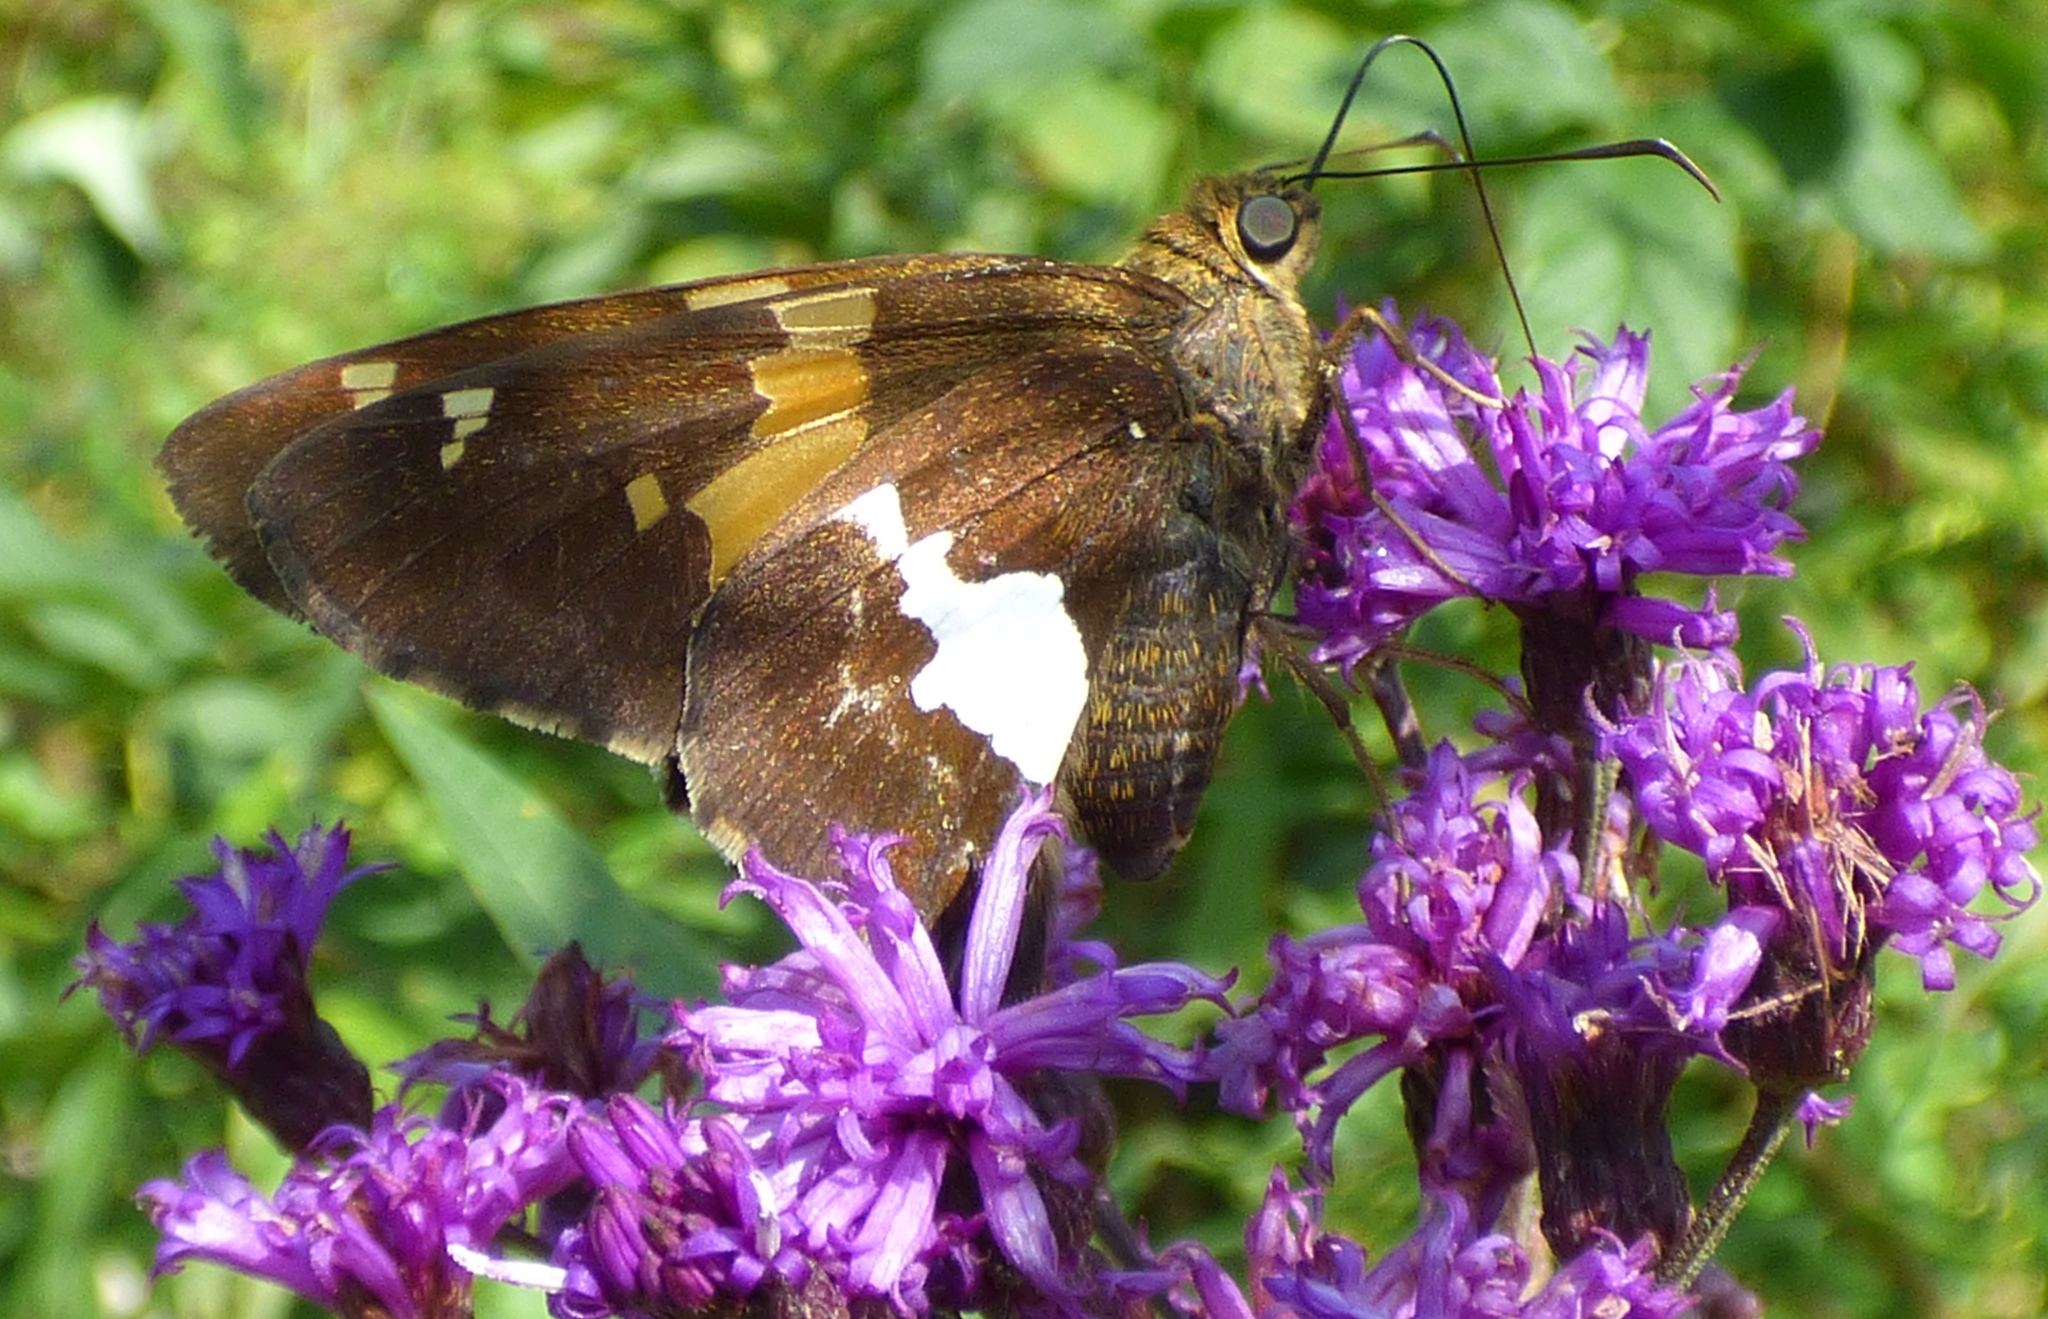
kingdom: Animalia
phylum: Arthropoda
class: Insecta
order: Lepidoptera
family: Hesperiidae
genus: Epargyreus
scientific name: Epargyreus clarus
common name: Silver-spotted skipper
